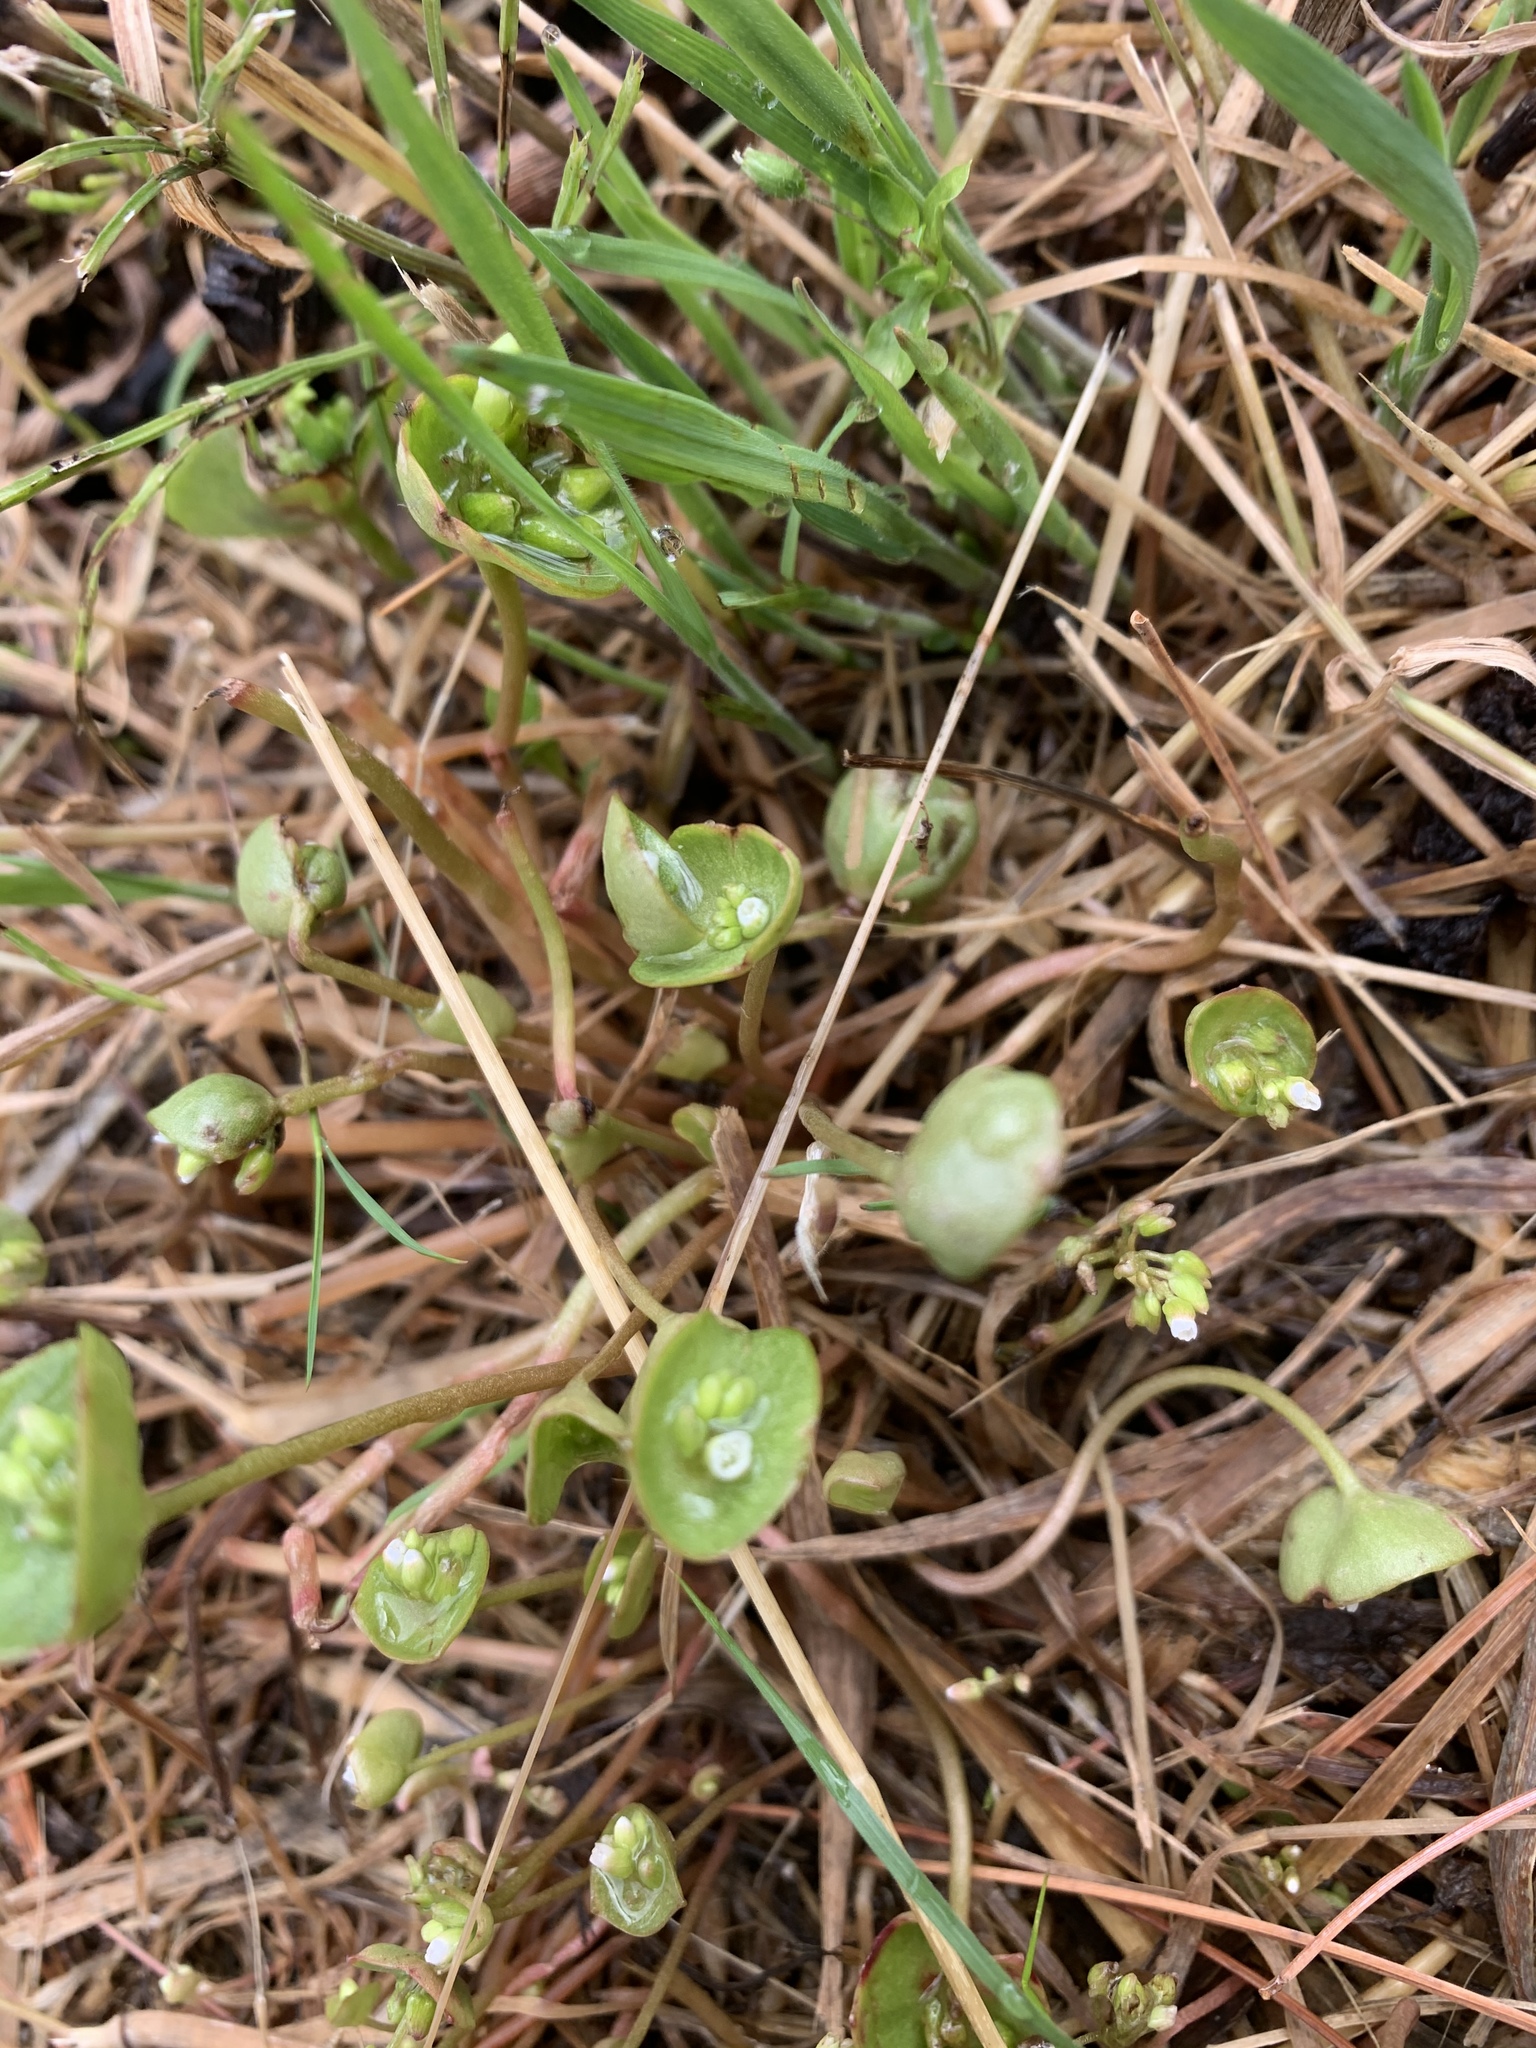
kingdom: Plantae
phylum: Tracheophyta
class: Magnoliopsida
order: Caryophyllales
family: Montiaceae
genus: Claytonia
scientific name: Claytonia perfoliata
